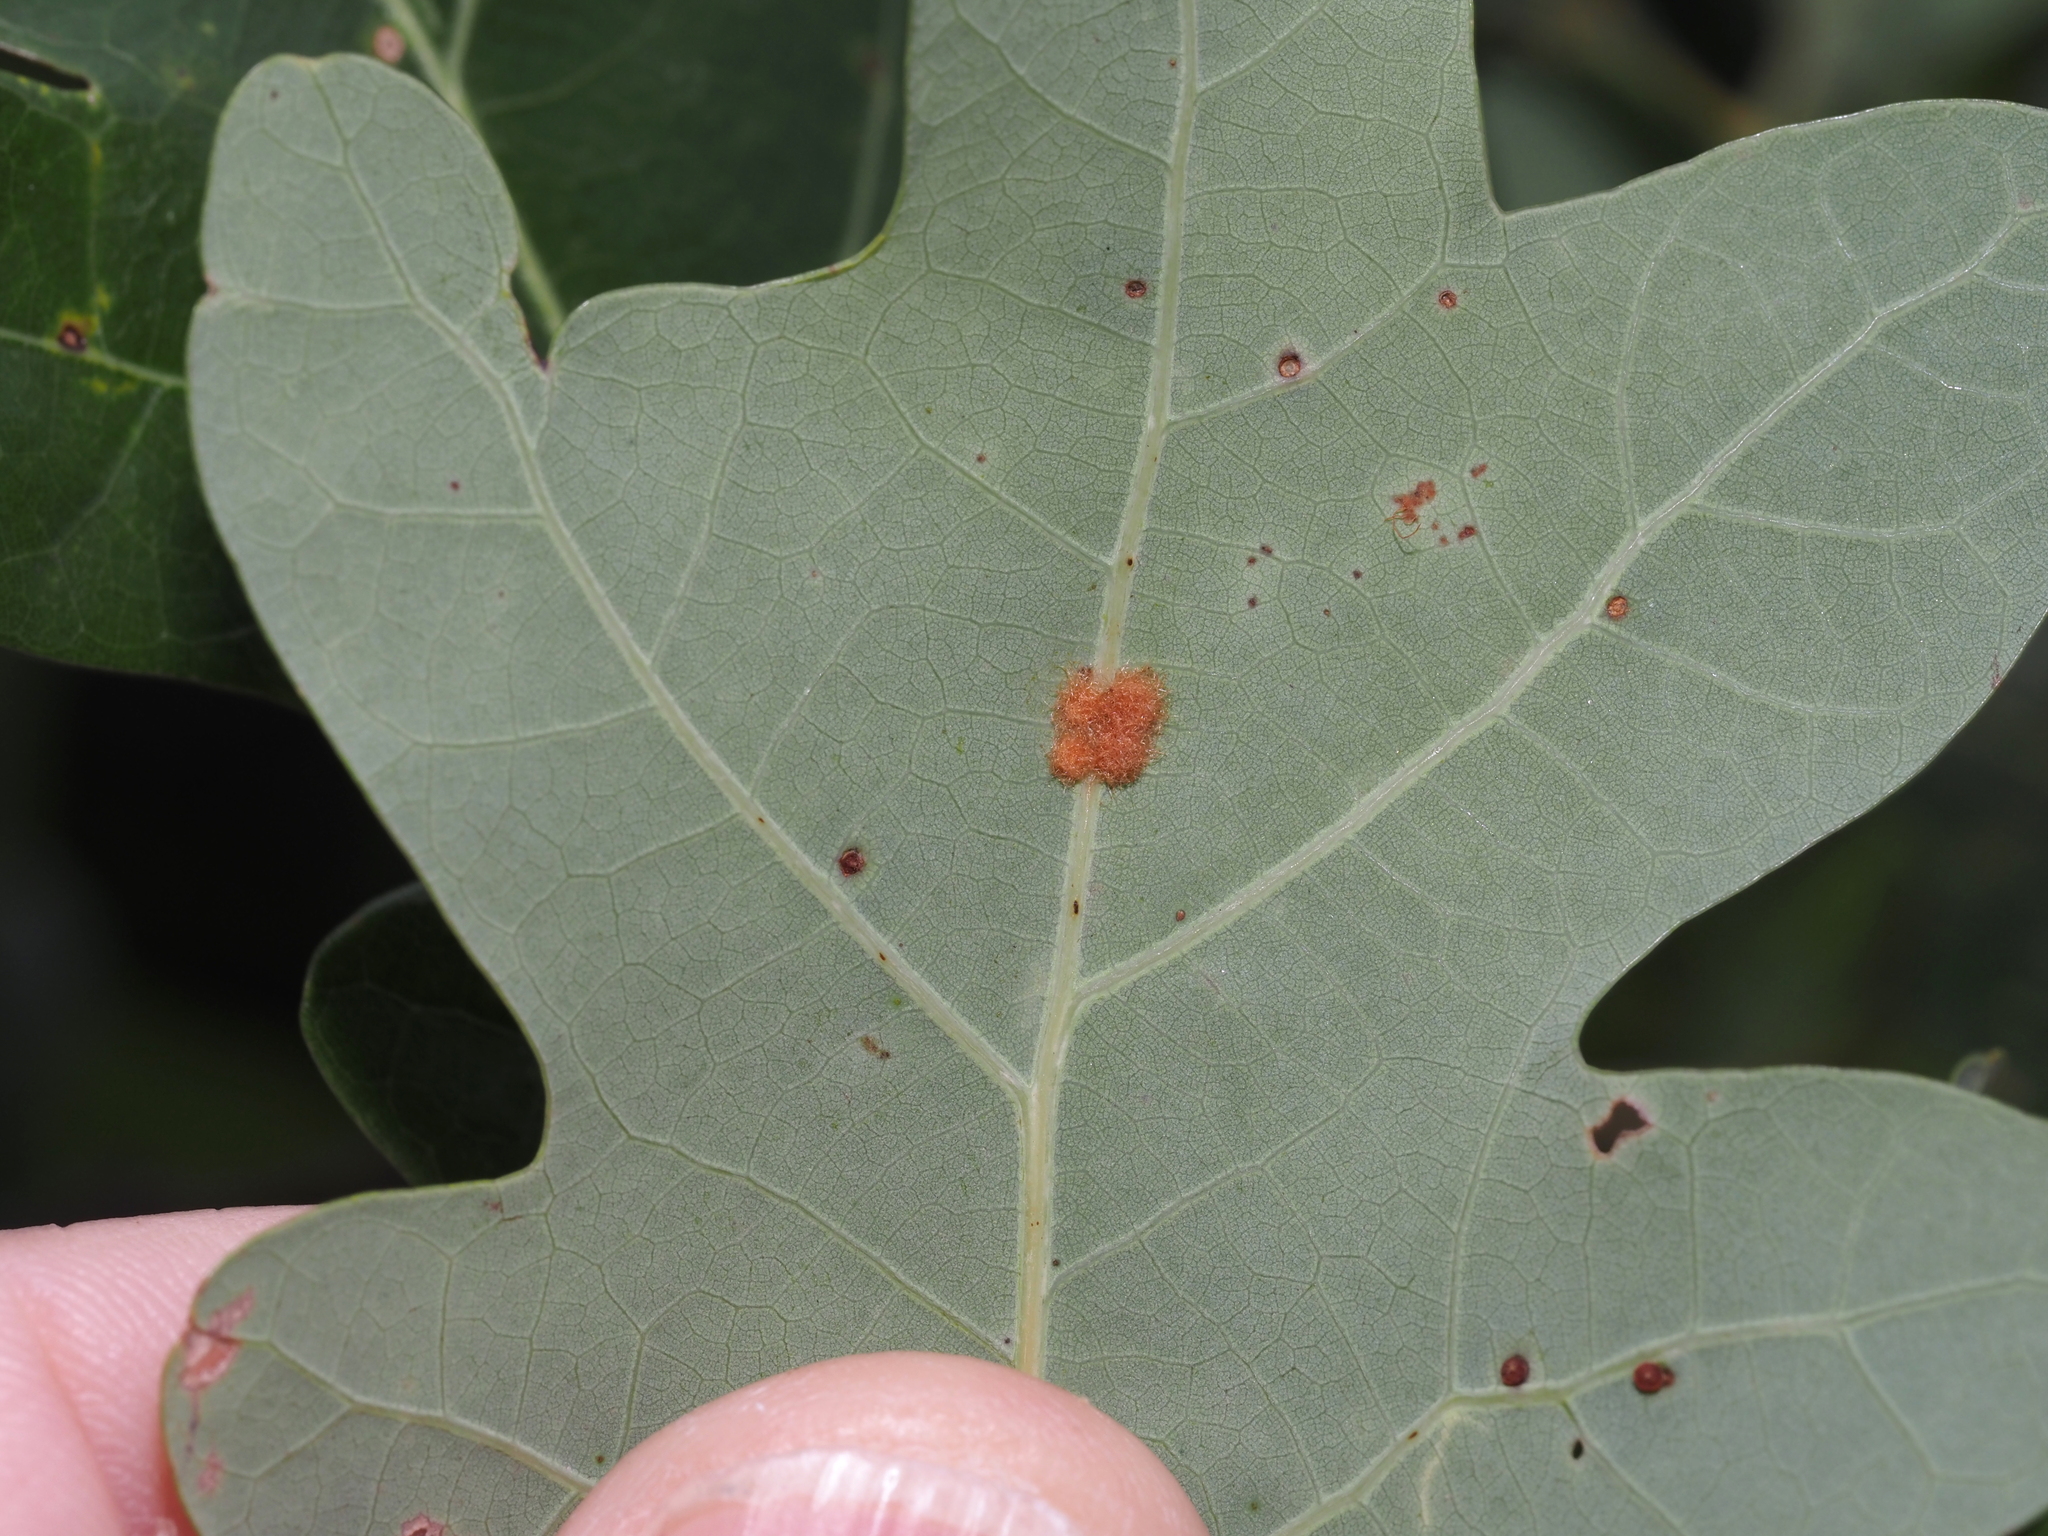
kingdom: Animalia
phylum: Arthropoda
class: Insecta
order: Hymenoptera
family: Cynipidae
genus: Neuroterus
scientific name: Neuroterus quercusverrucarum
